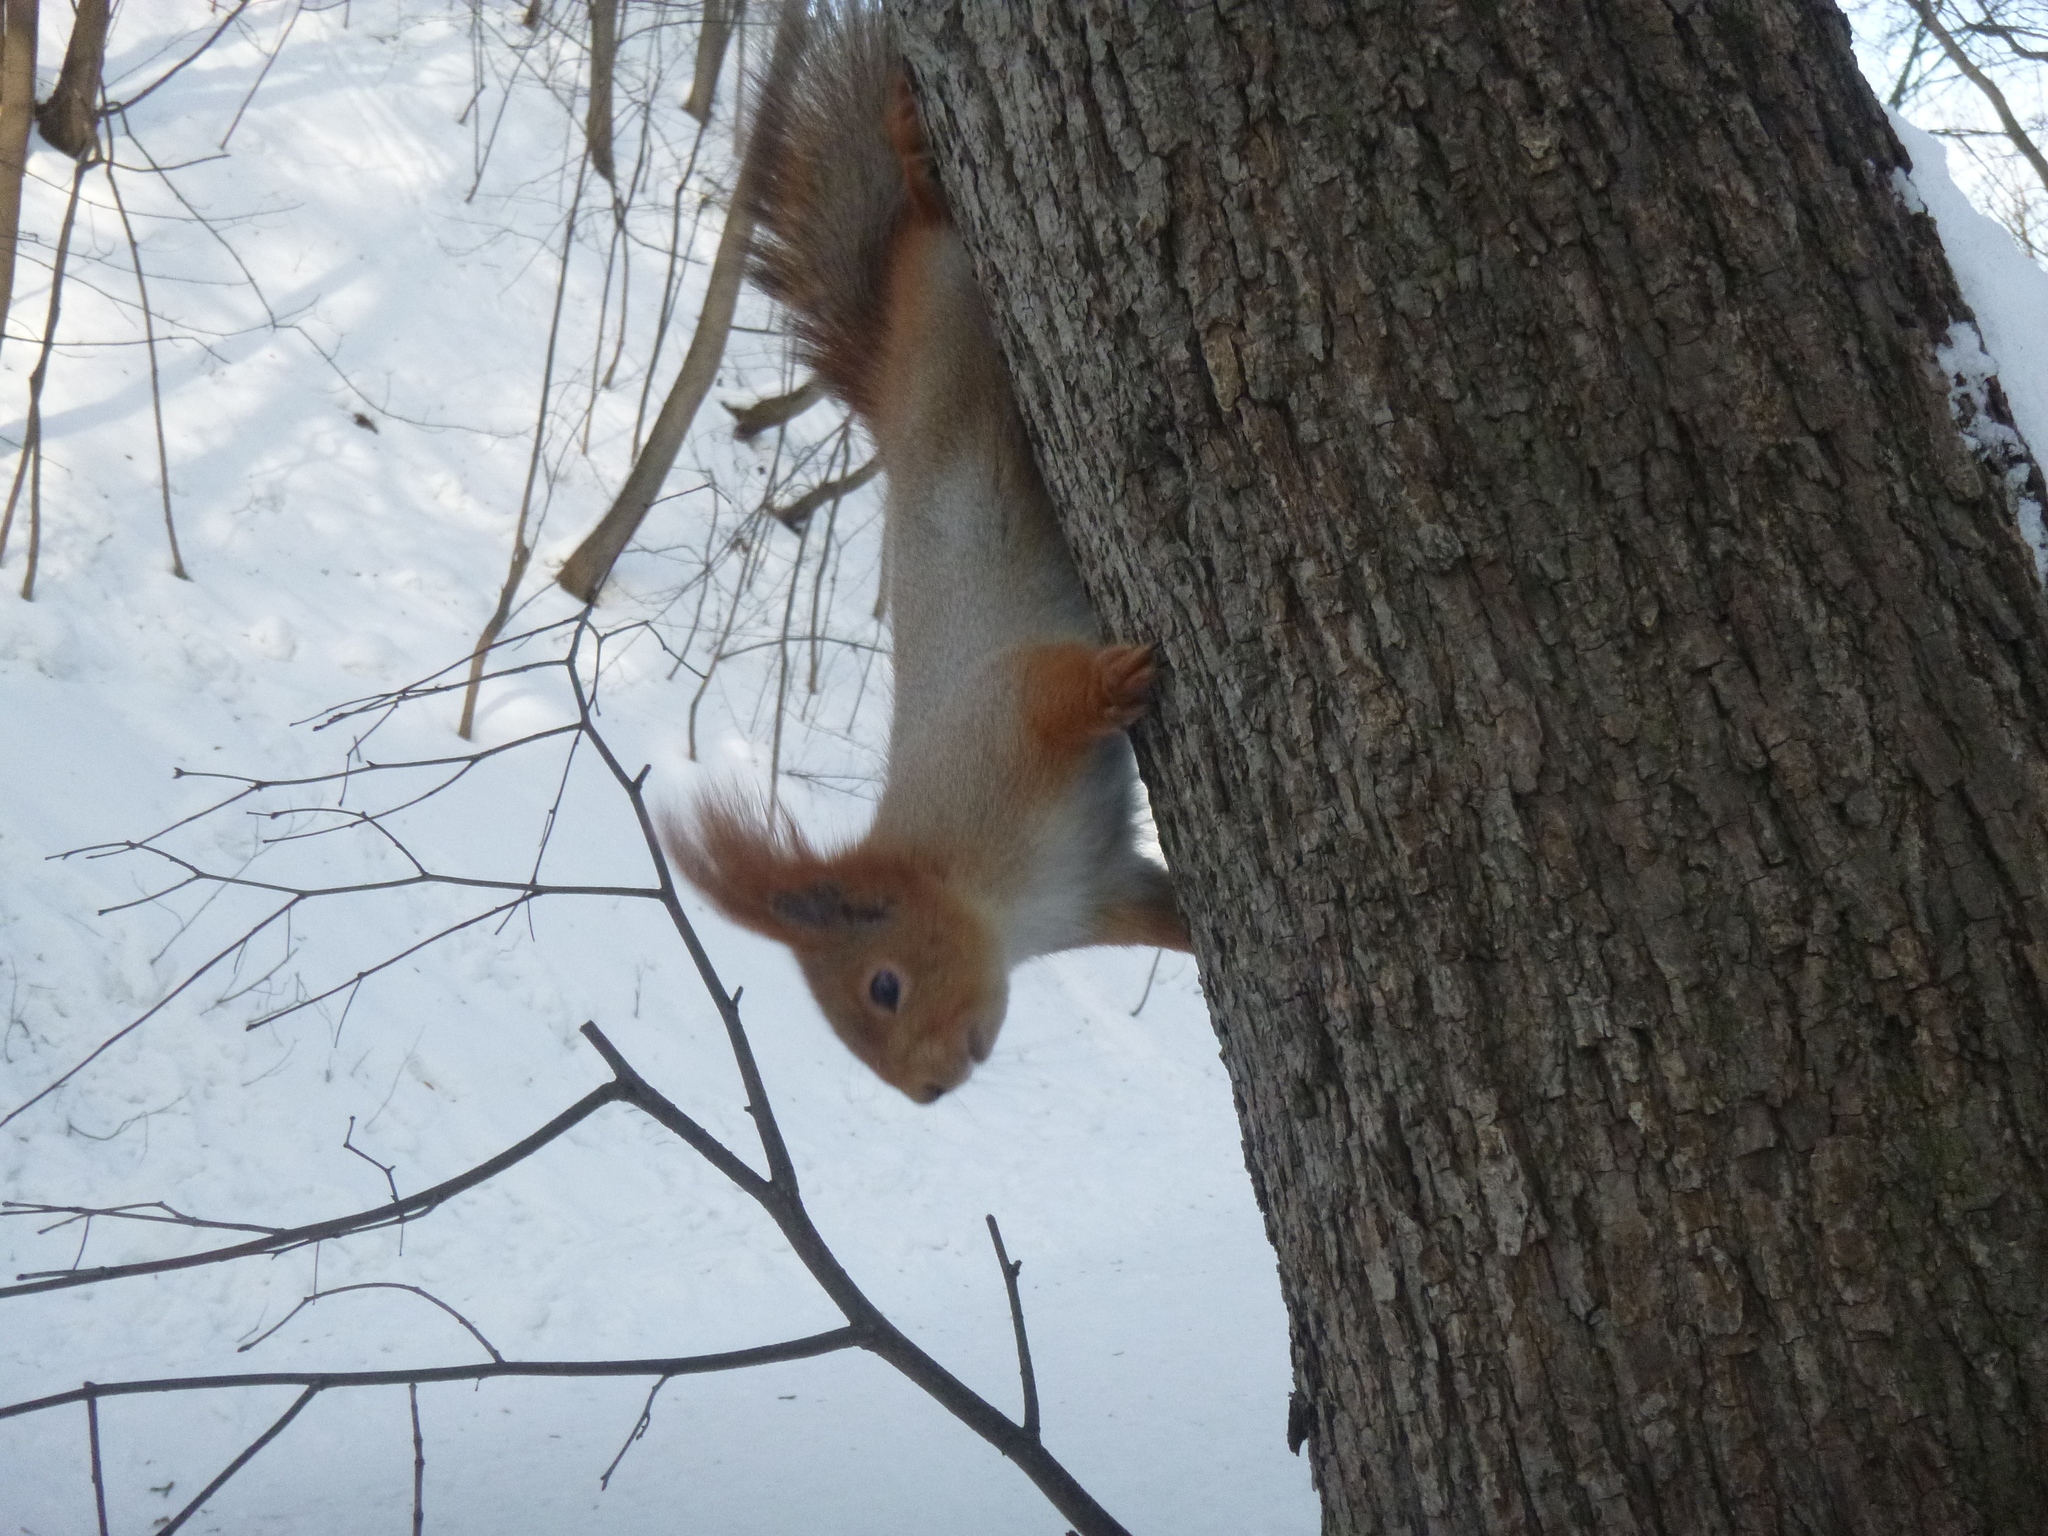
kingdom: Animalia
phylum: Chordata
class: Mammalia
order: Rodentia
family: Sciuridae
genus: Sciurus
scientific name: Sciurus vulgaris
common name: Eurasian red squirrel
